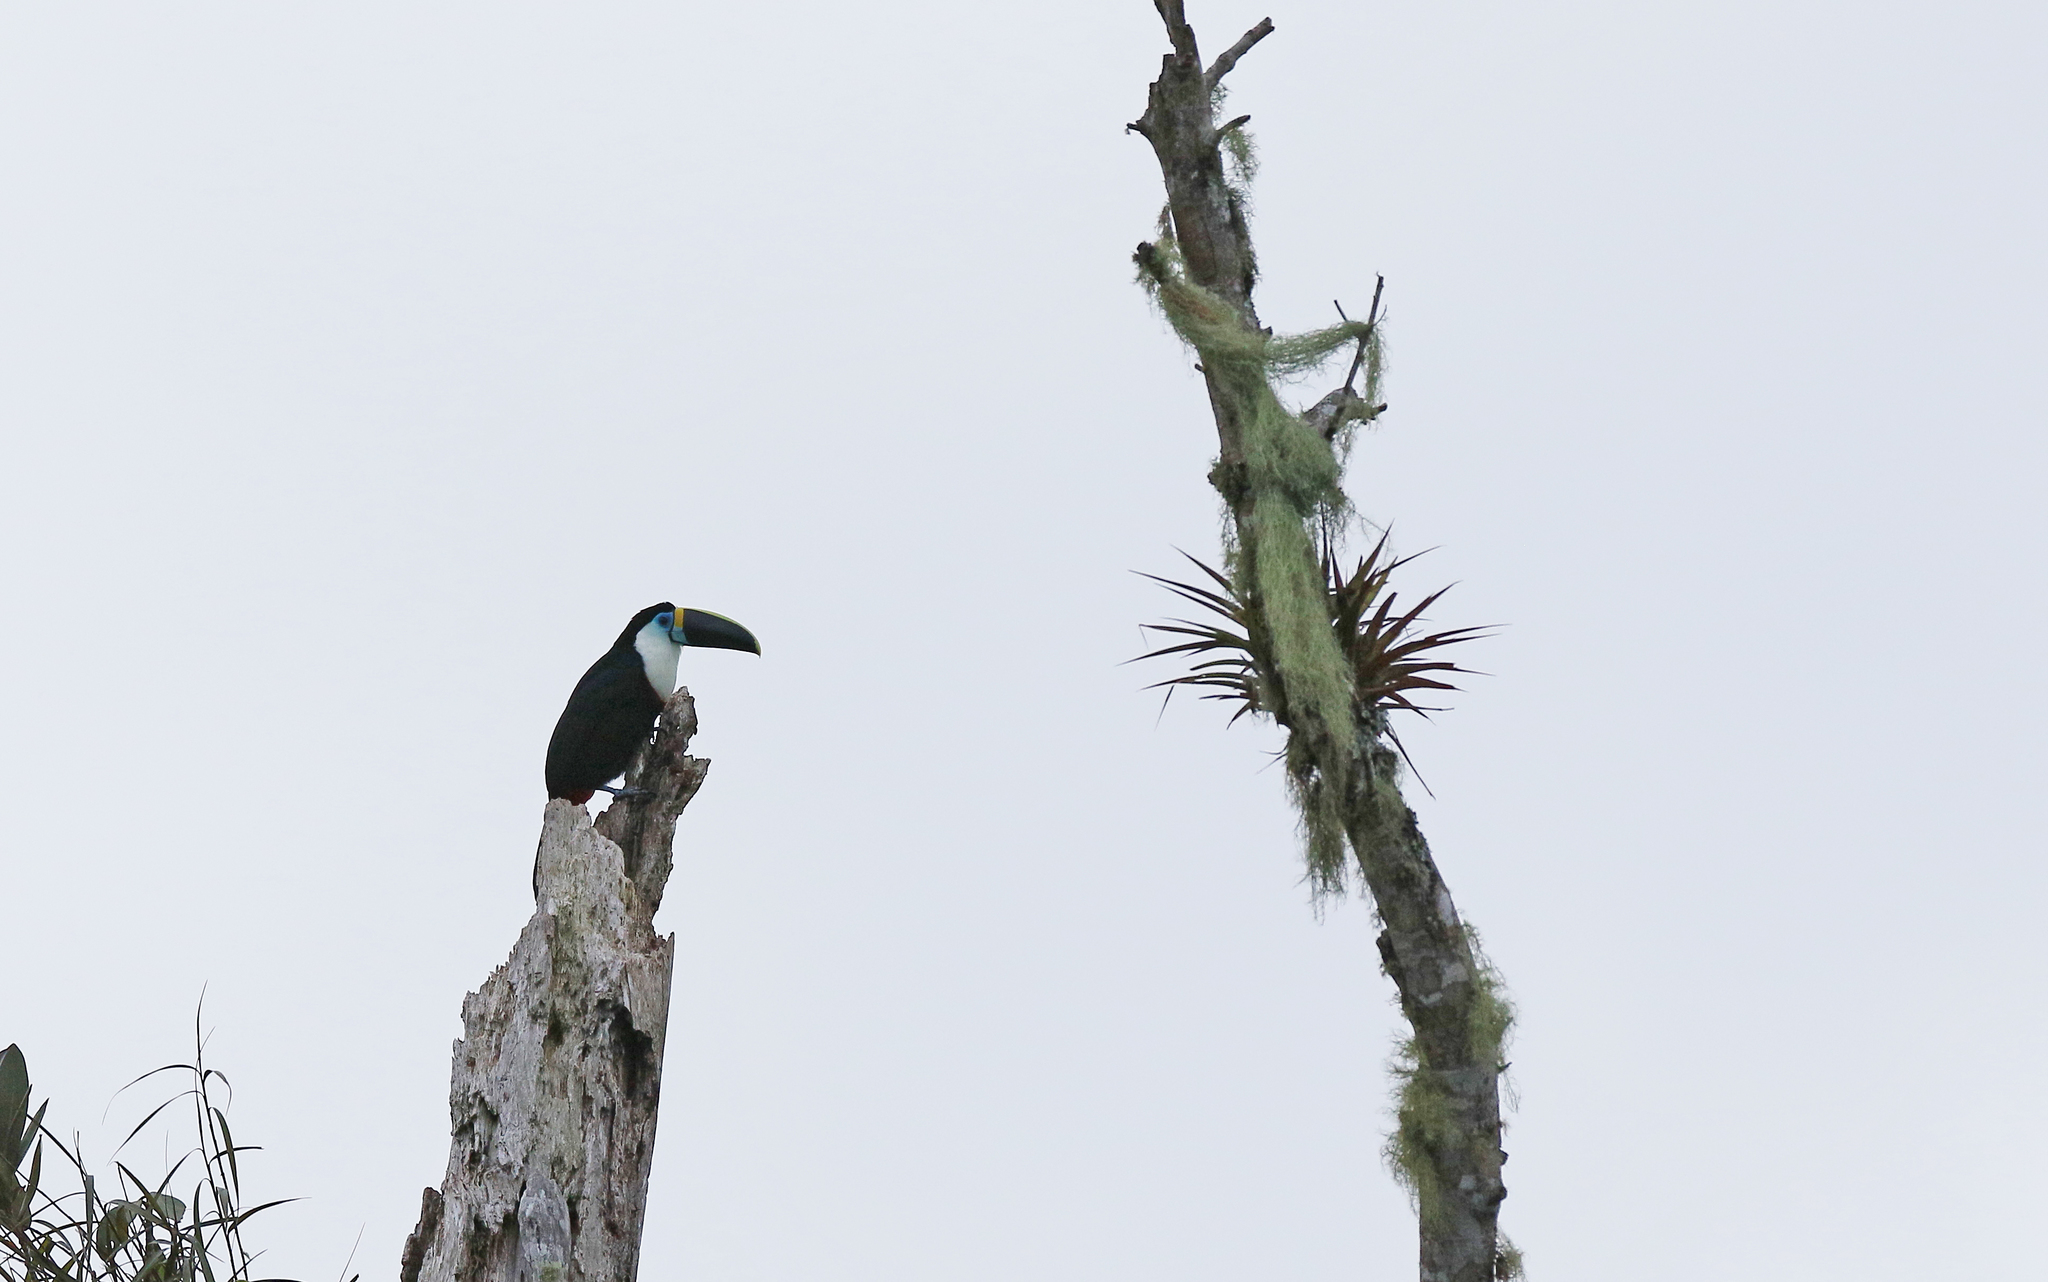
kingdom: Animalia
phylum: Chordata
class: Aves
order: Piciformes
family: Ramphastidae
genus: Ramphastos
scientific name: Ramphastos vitellinus
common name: Channel-billed toucan
